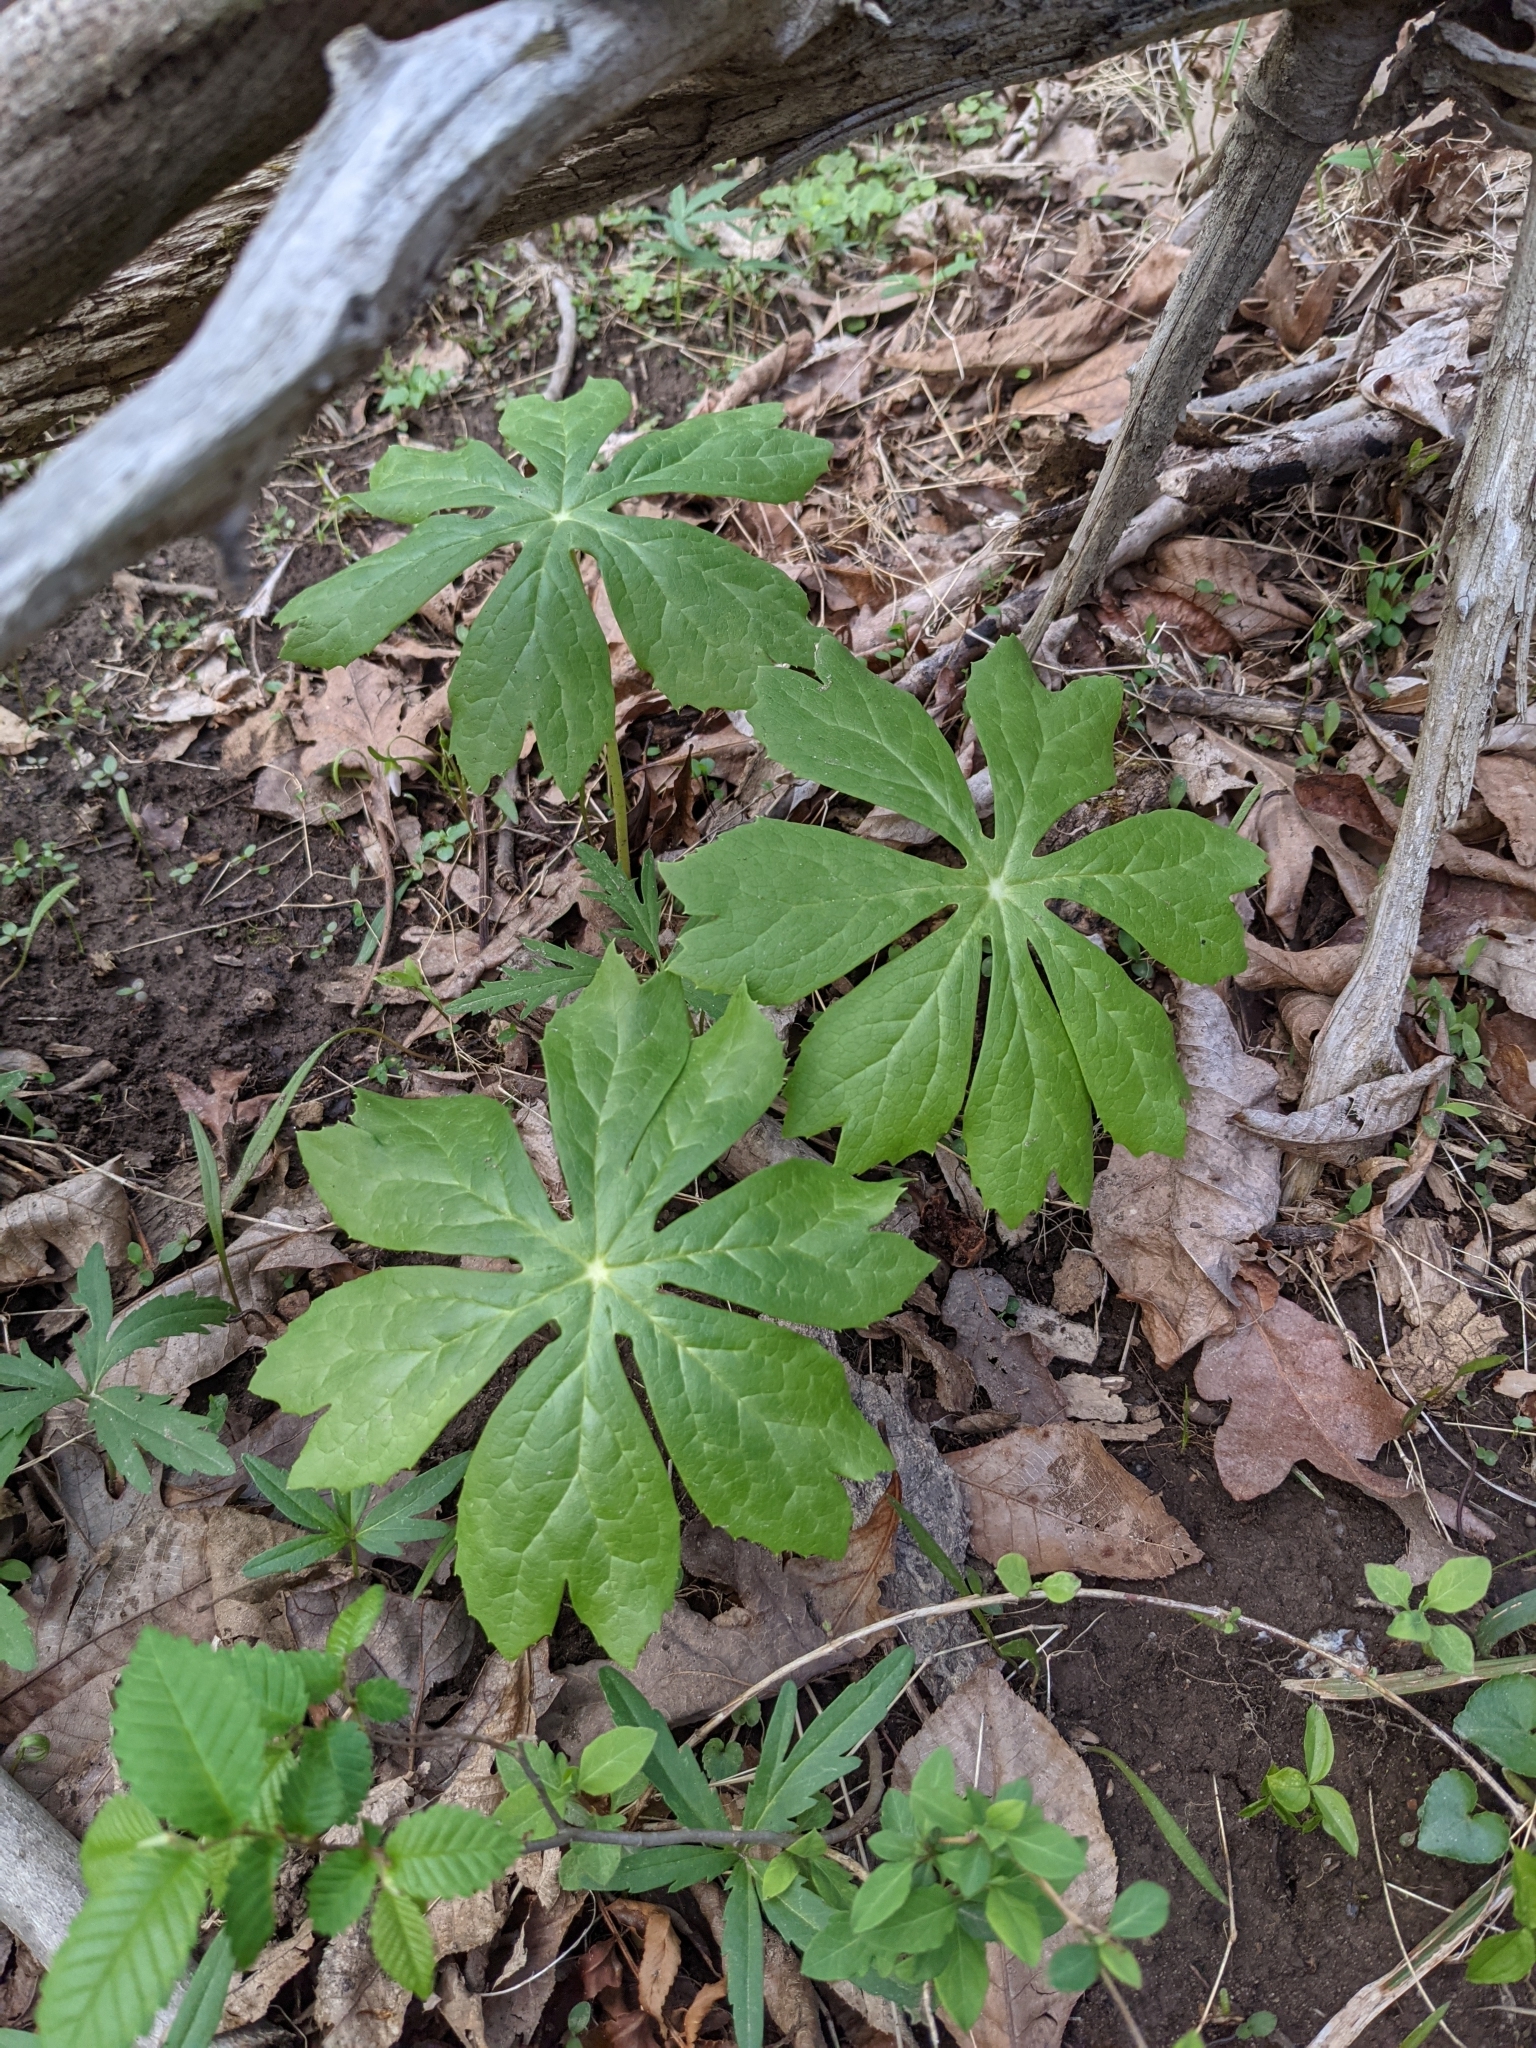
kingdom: Plantae
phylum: Tracheophyta
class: Magnoliopsida
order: Ranunculales
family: Berberidaceae
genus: Podophyllum
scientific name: Podophyllum peltatum
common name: Wild mandrake
